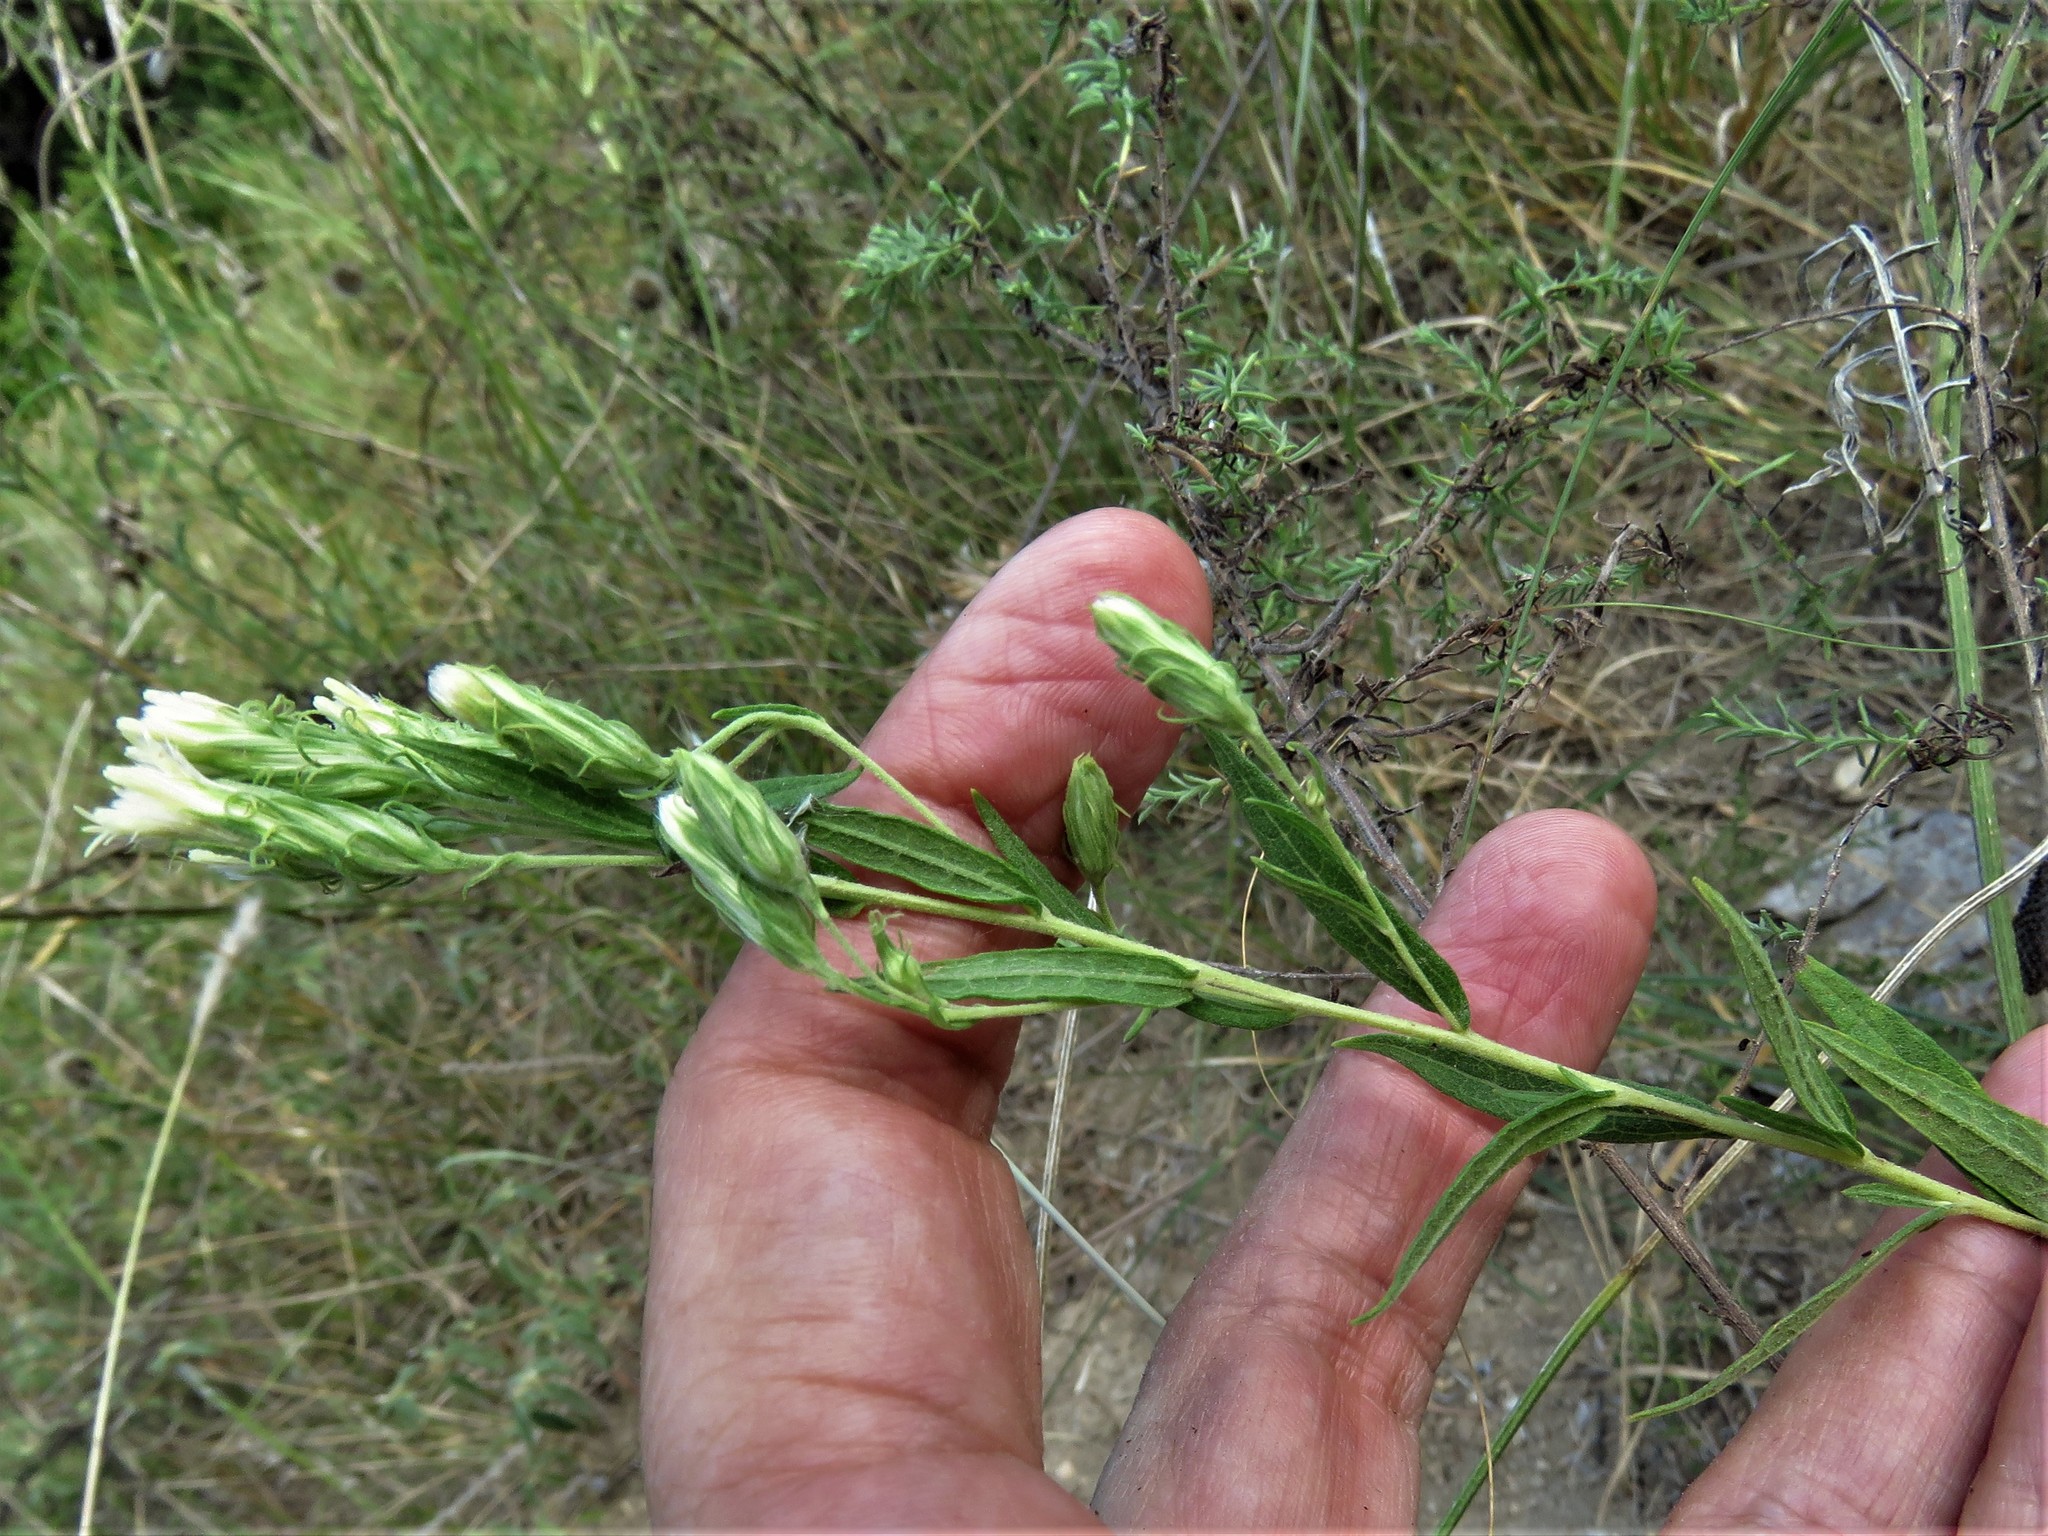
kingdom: Plantae
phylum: Tracheophyta
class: Magnoliopsida
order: Asterales
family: Asteraceae
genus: Brickellia
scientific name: Brickellia eupatorioides
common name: False boneset
